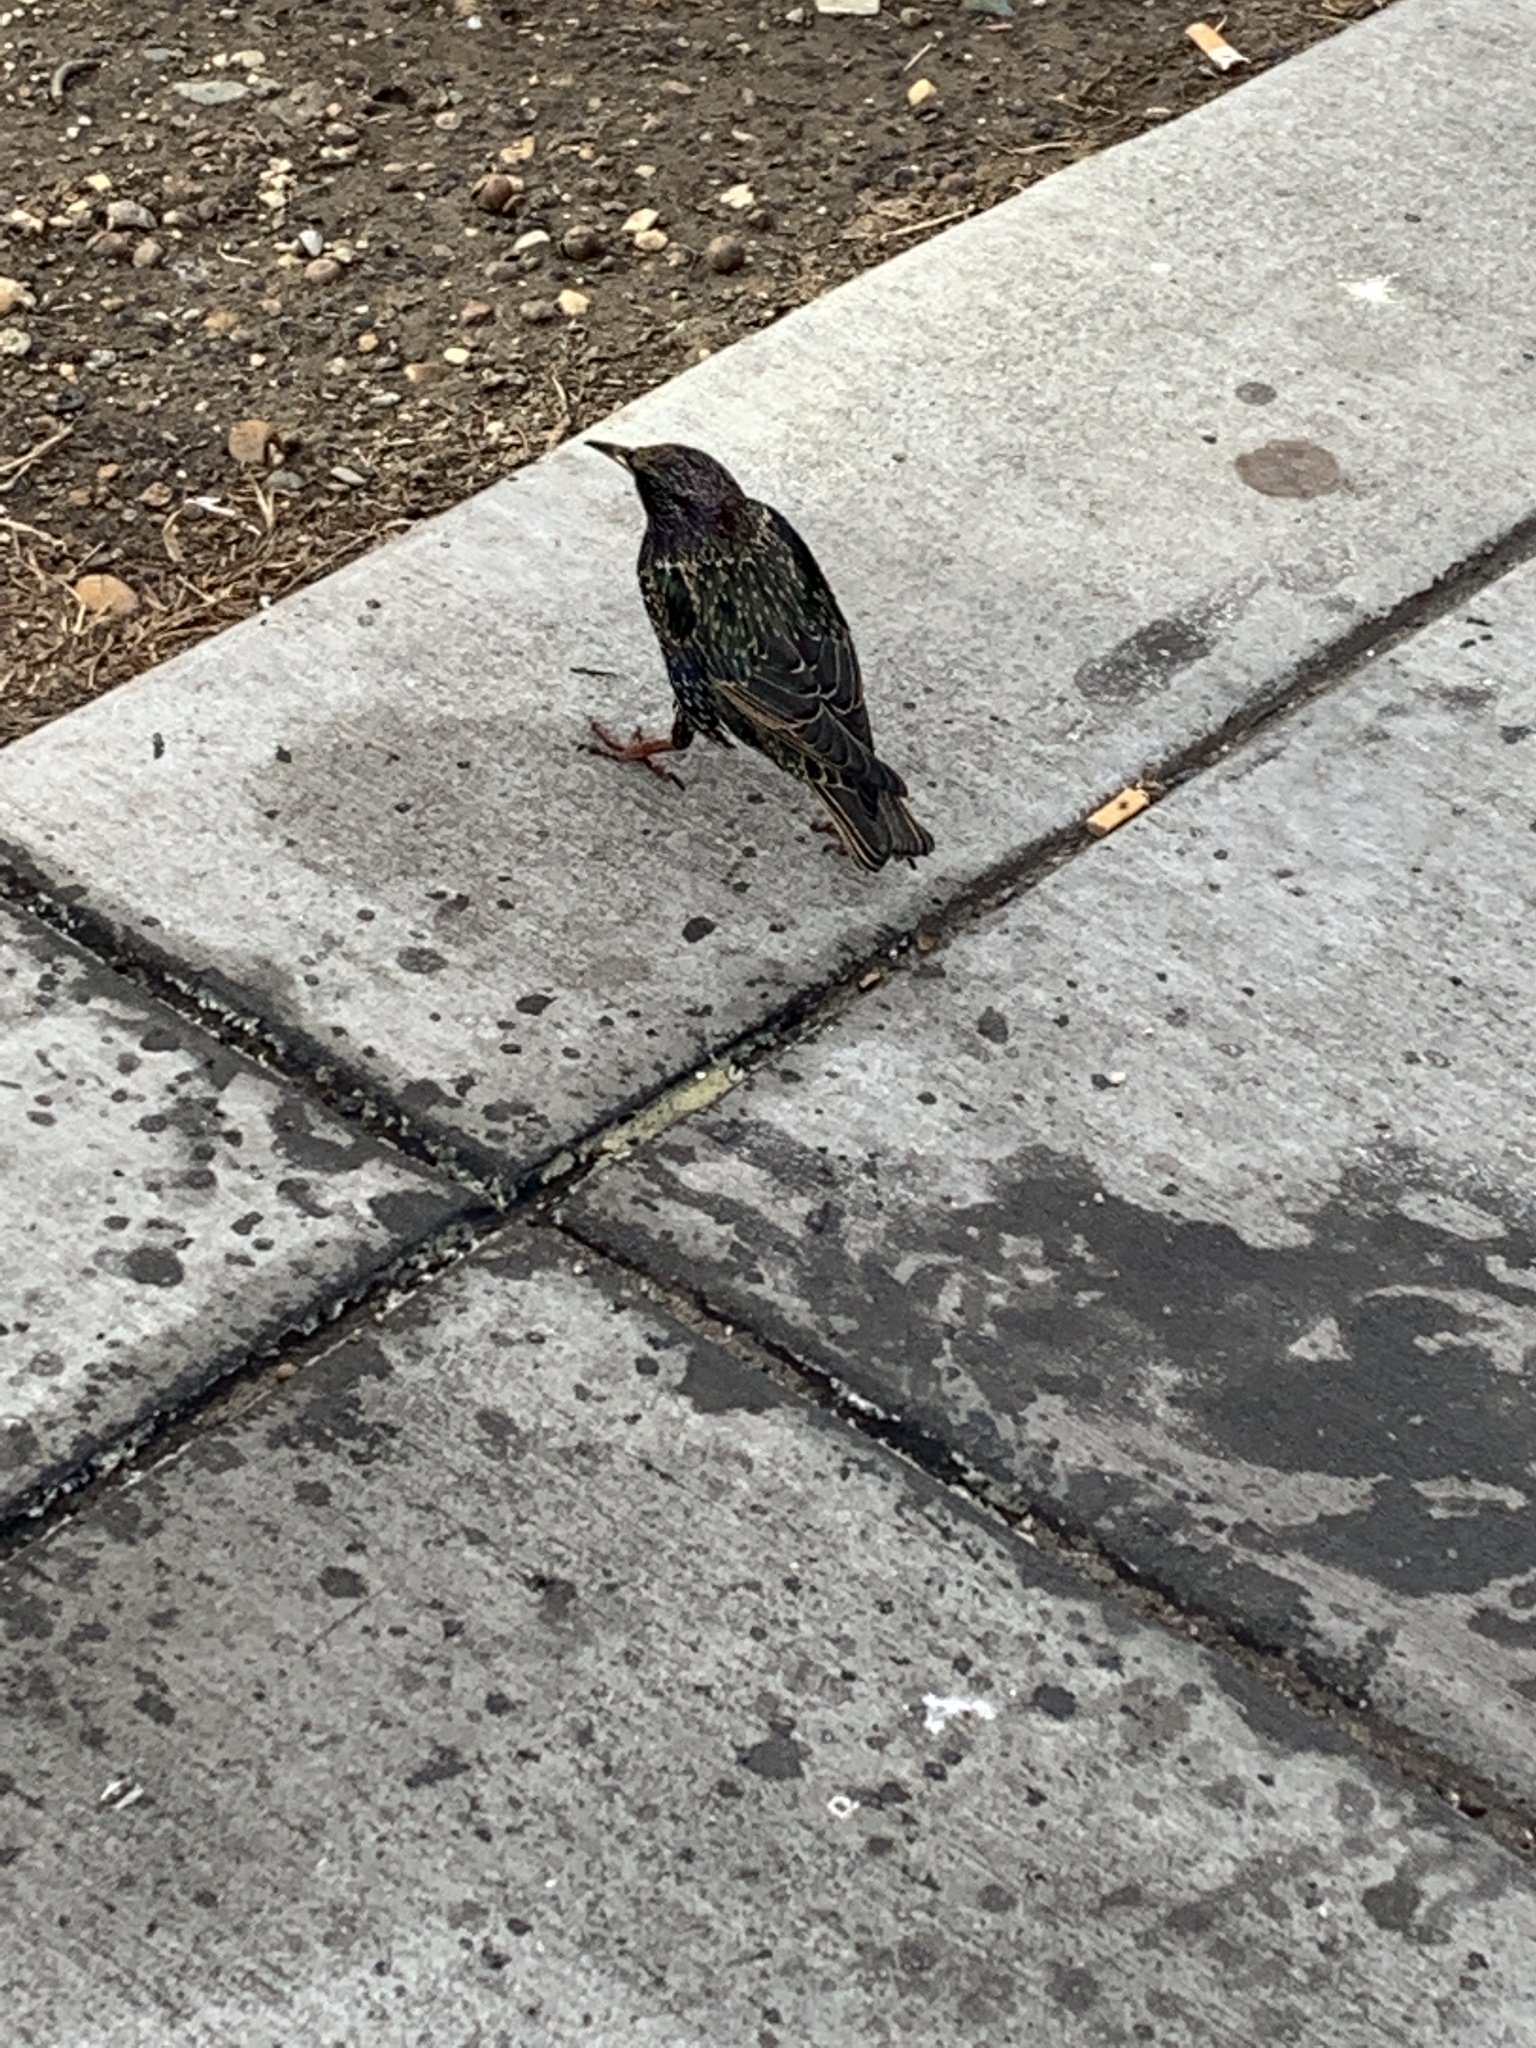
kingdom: Animalia
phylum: Chordata
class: Aves
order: Passeriformes
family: Sturnidae
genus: Sturnus
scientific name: Sturnus vulgaris
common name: Common starling
